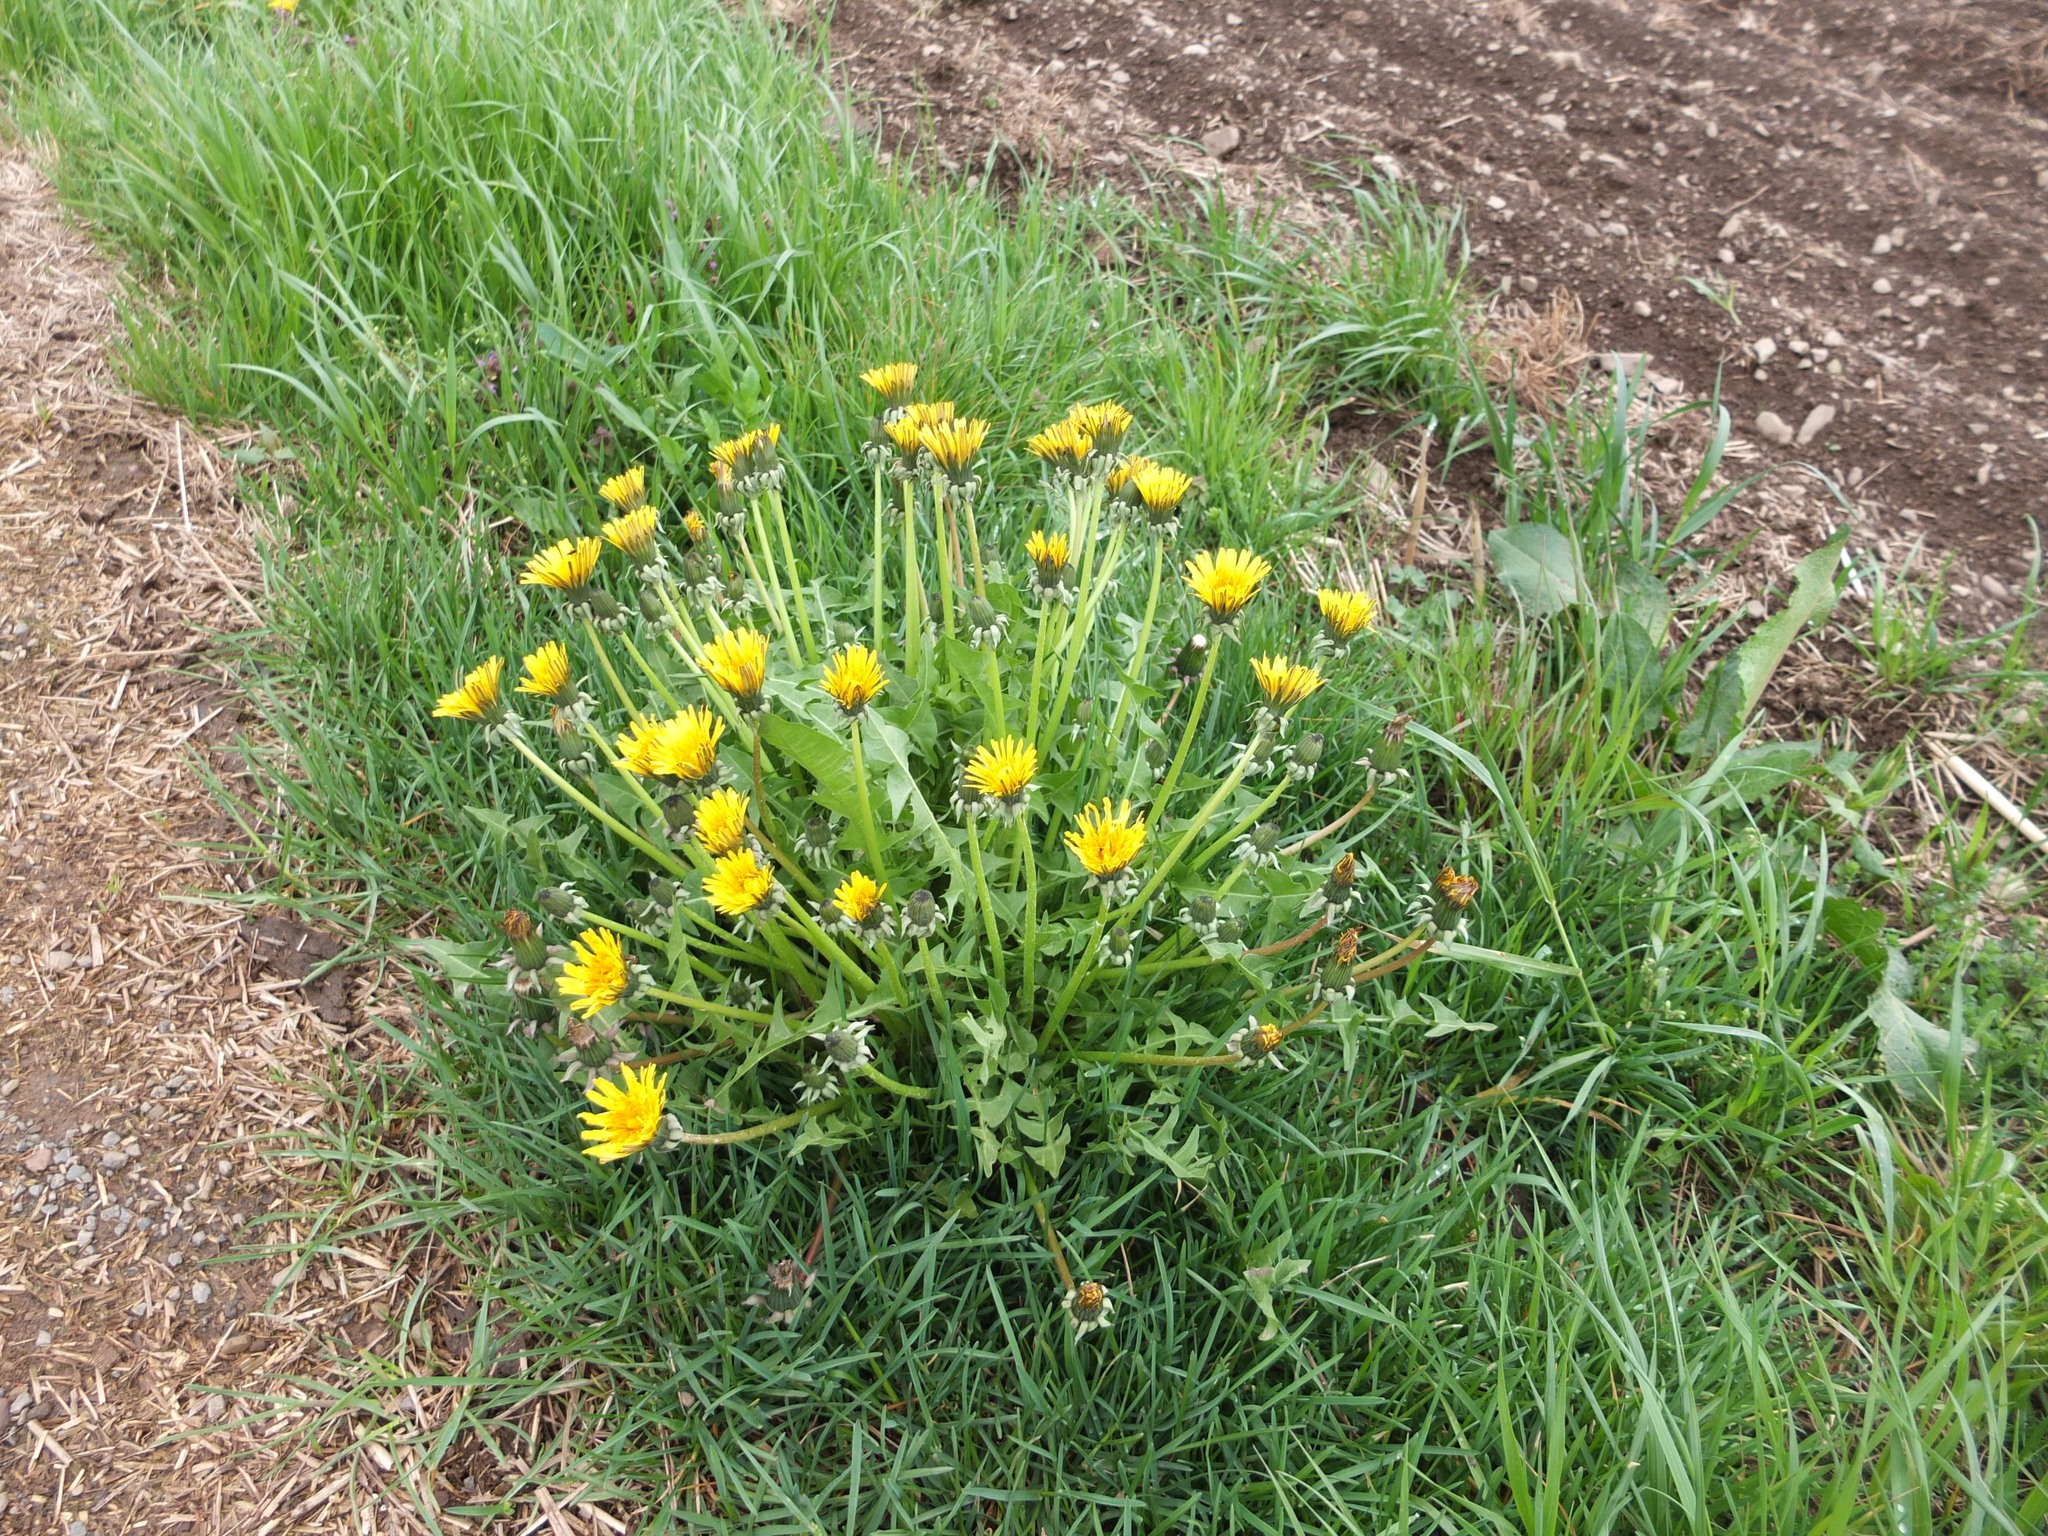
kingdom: Plantae
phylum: Tracheophyta
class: Magnoliopsida
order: Asterales
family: Asteraceae
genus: Taraxacum
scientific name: Taraxacum officinale
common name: Common dandelion
